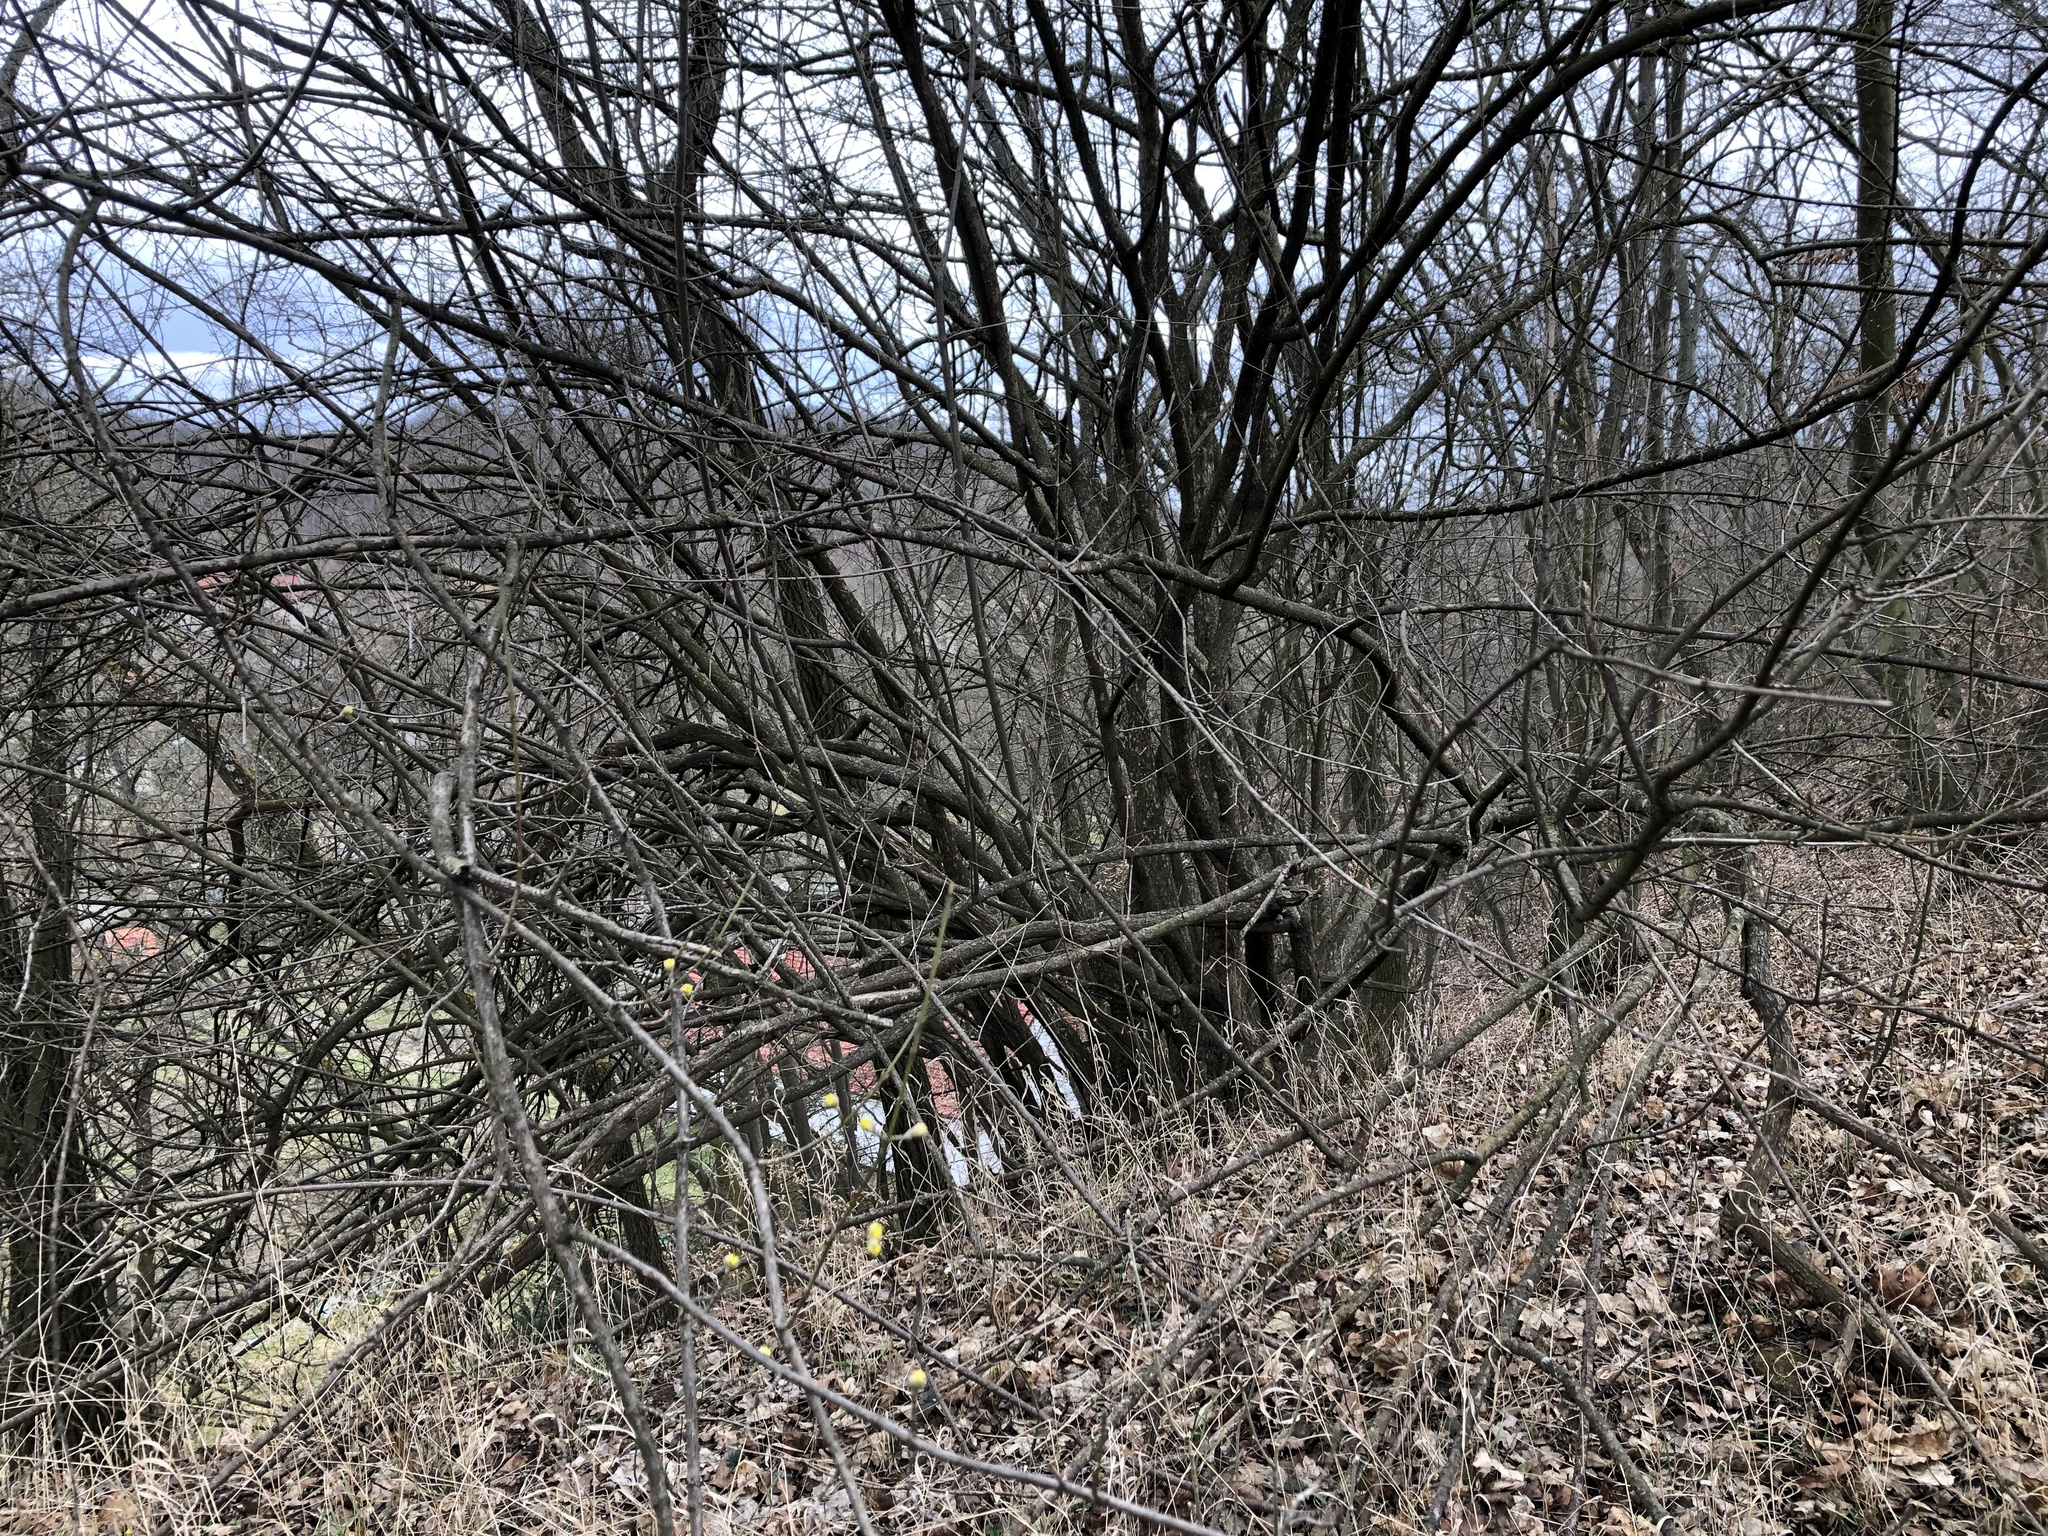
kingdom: Plantae
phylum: Tracheophyta
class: Magnoliopsida
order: Cornales
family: Cornaceae
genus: Cornus
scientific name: Cornus mas
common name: Cornelian-cherry
